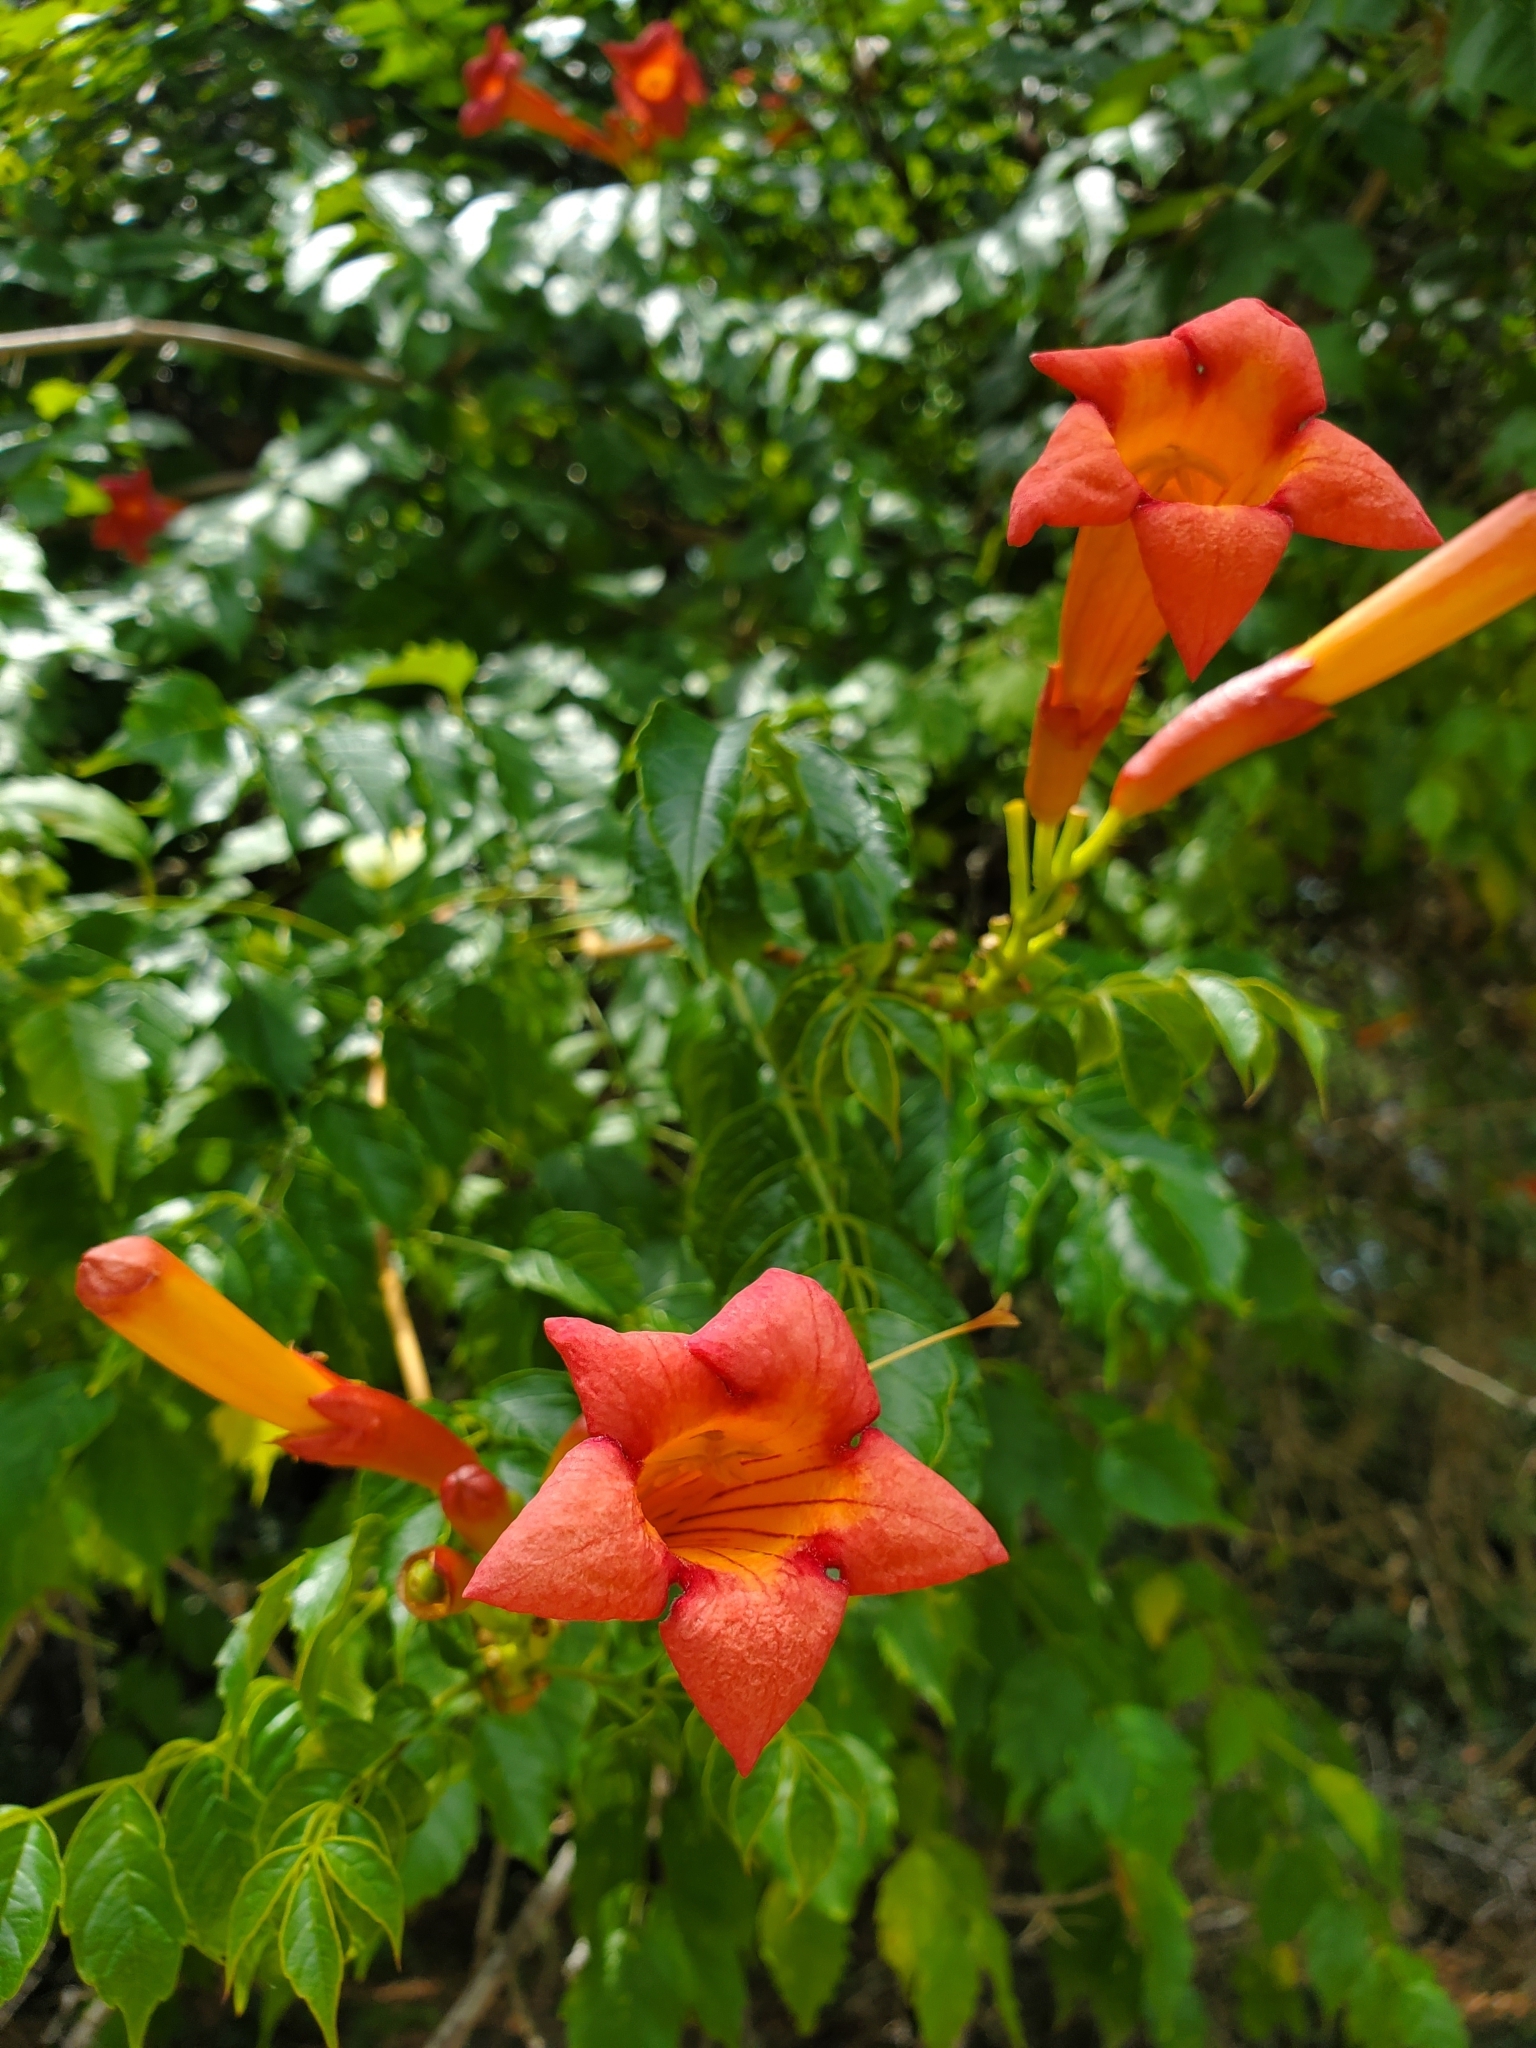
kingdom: Plantae
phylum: Tracheophyta
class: Magnoliopsida
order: Lamiales
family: Bignoniaceae
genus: Campsis
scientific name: Campsis radicans
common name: Trumpet-creeper
